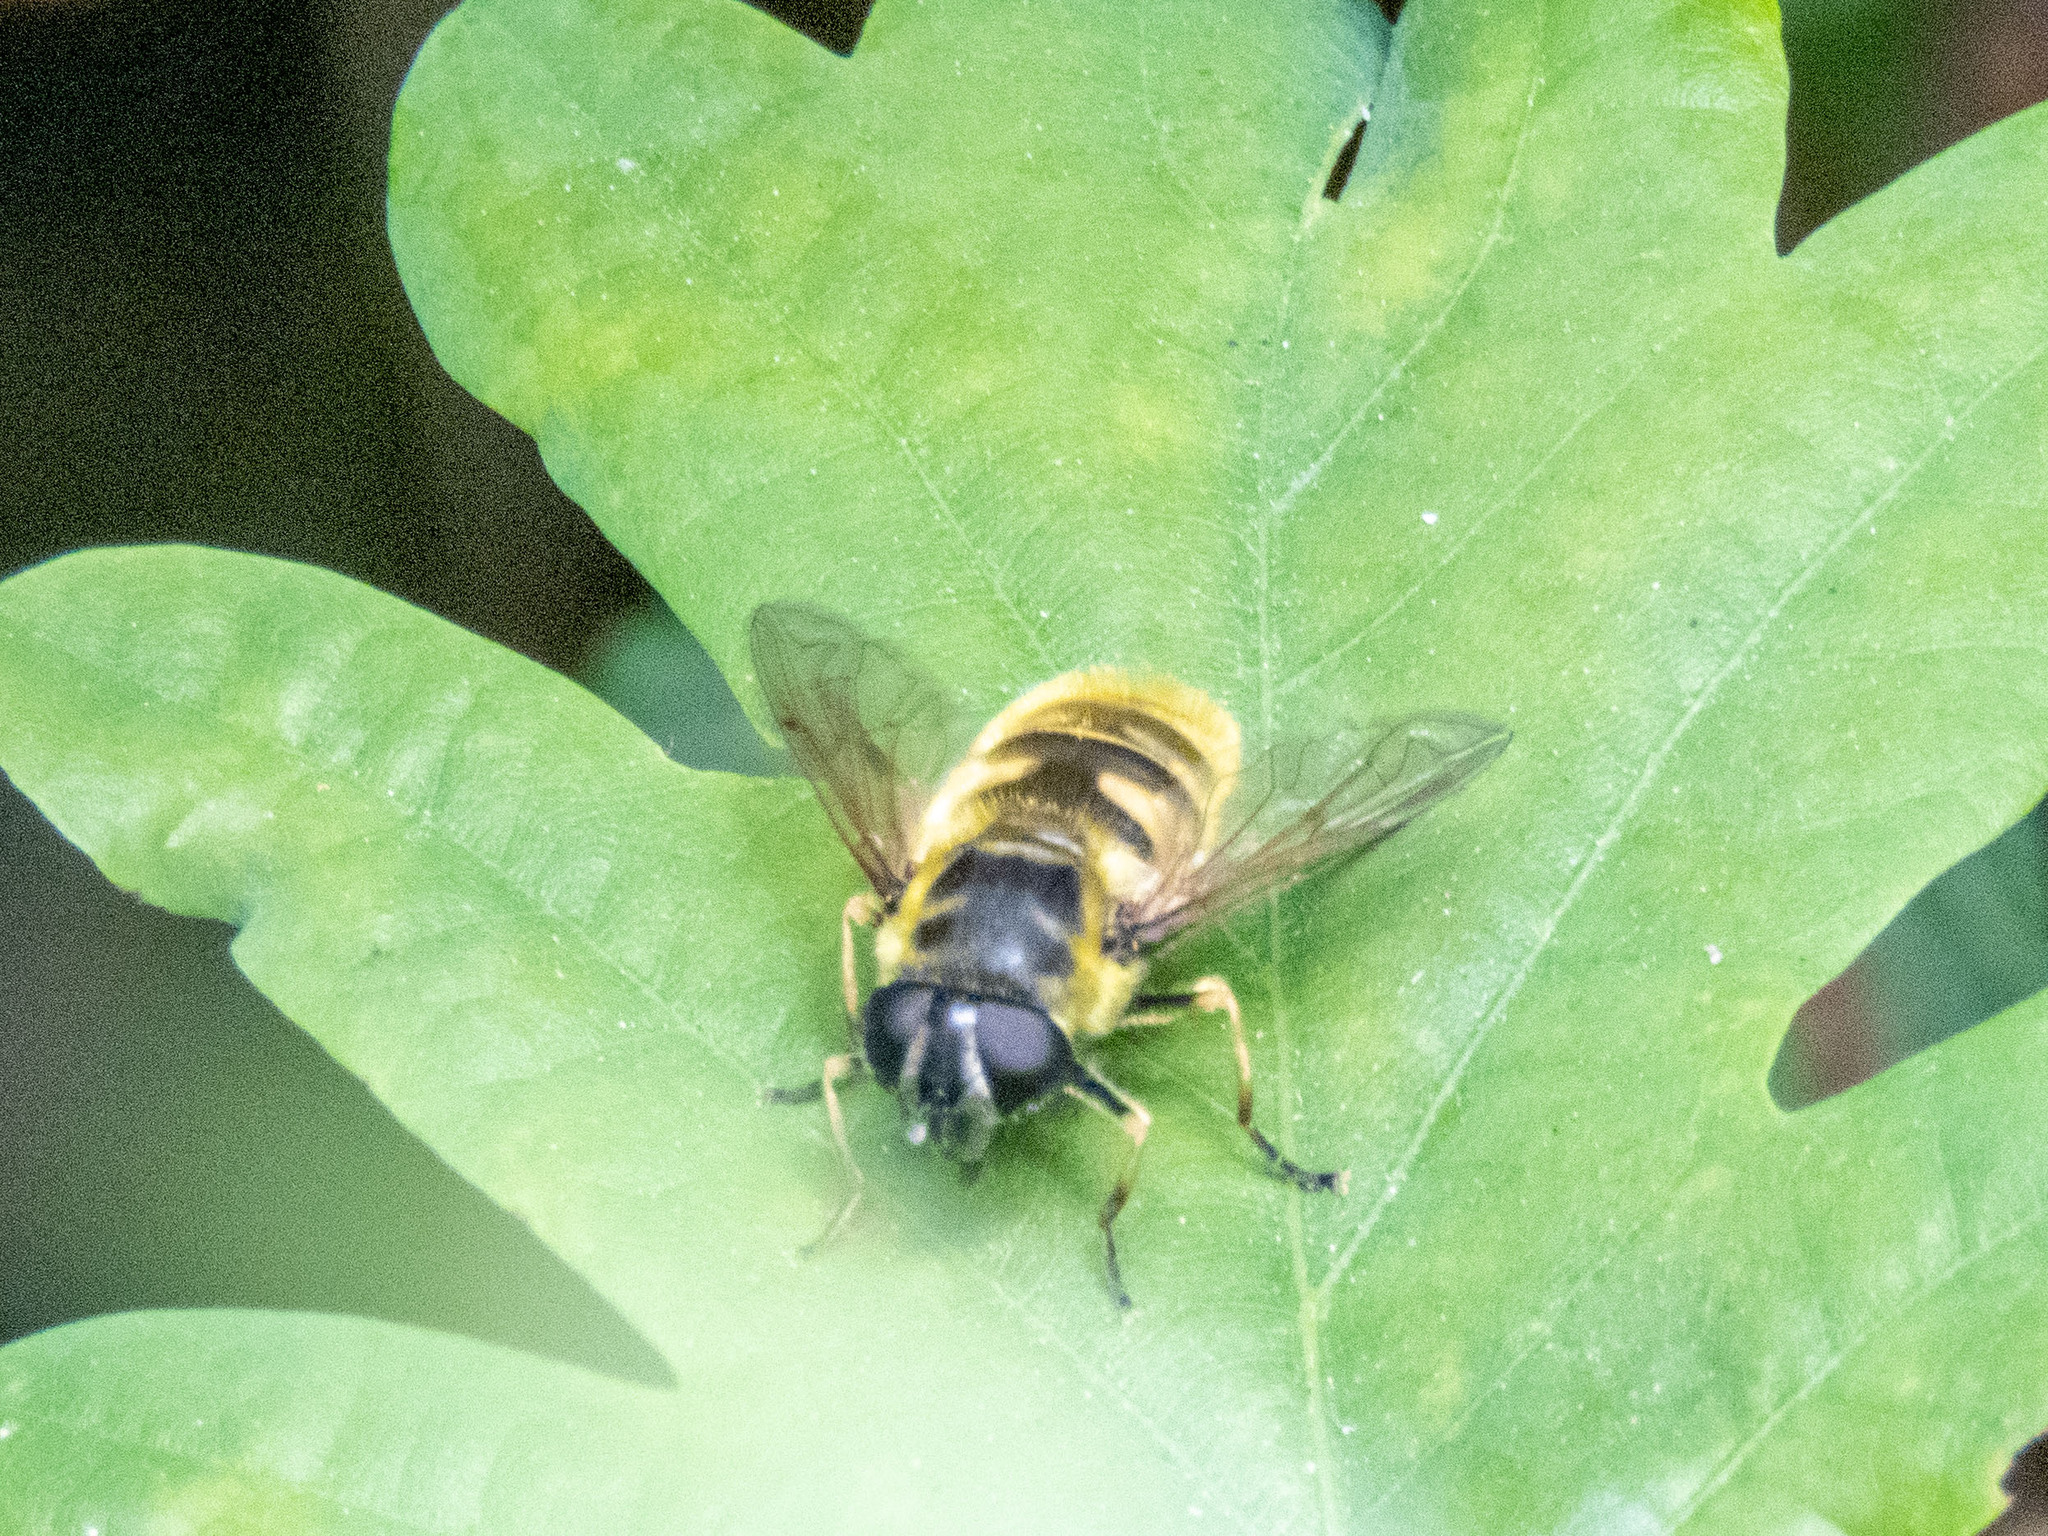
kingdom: Animalia
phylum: Arthropoda
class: Insecta
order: Diptera
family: Syrphidae
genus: Myathropa
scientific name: Myathropa florea
